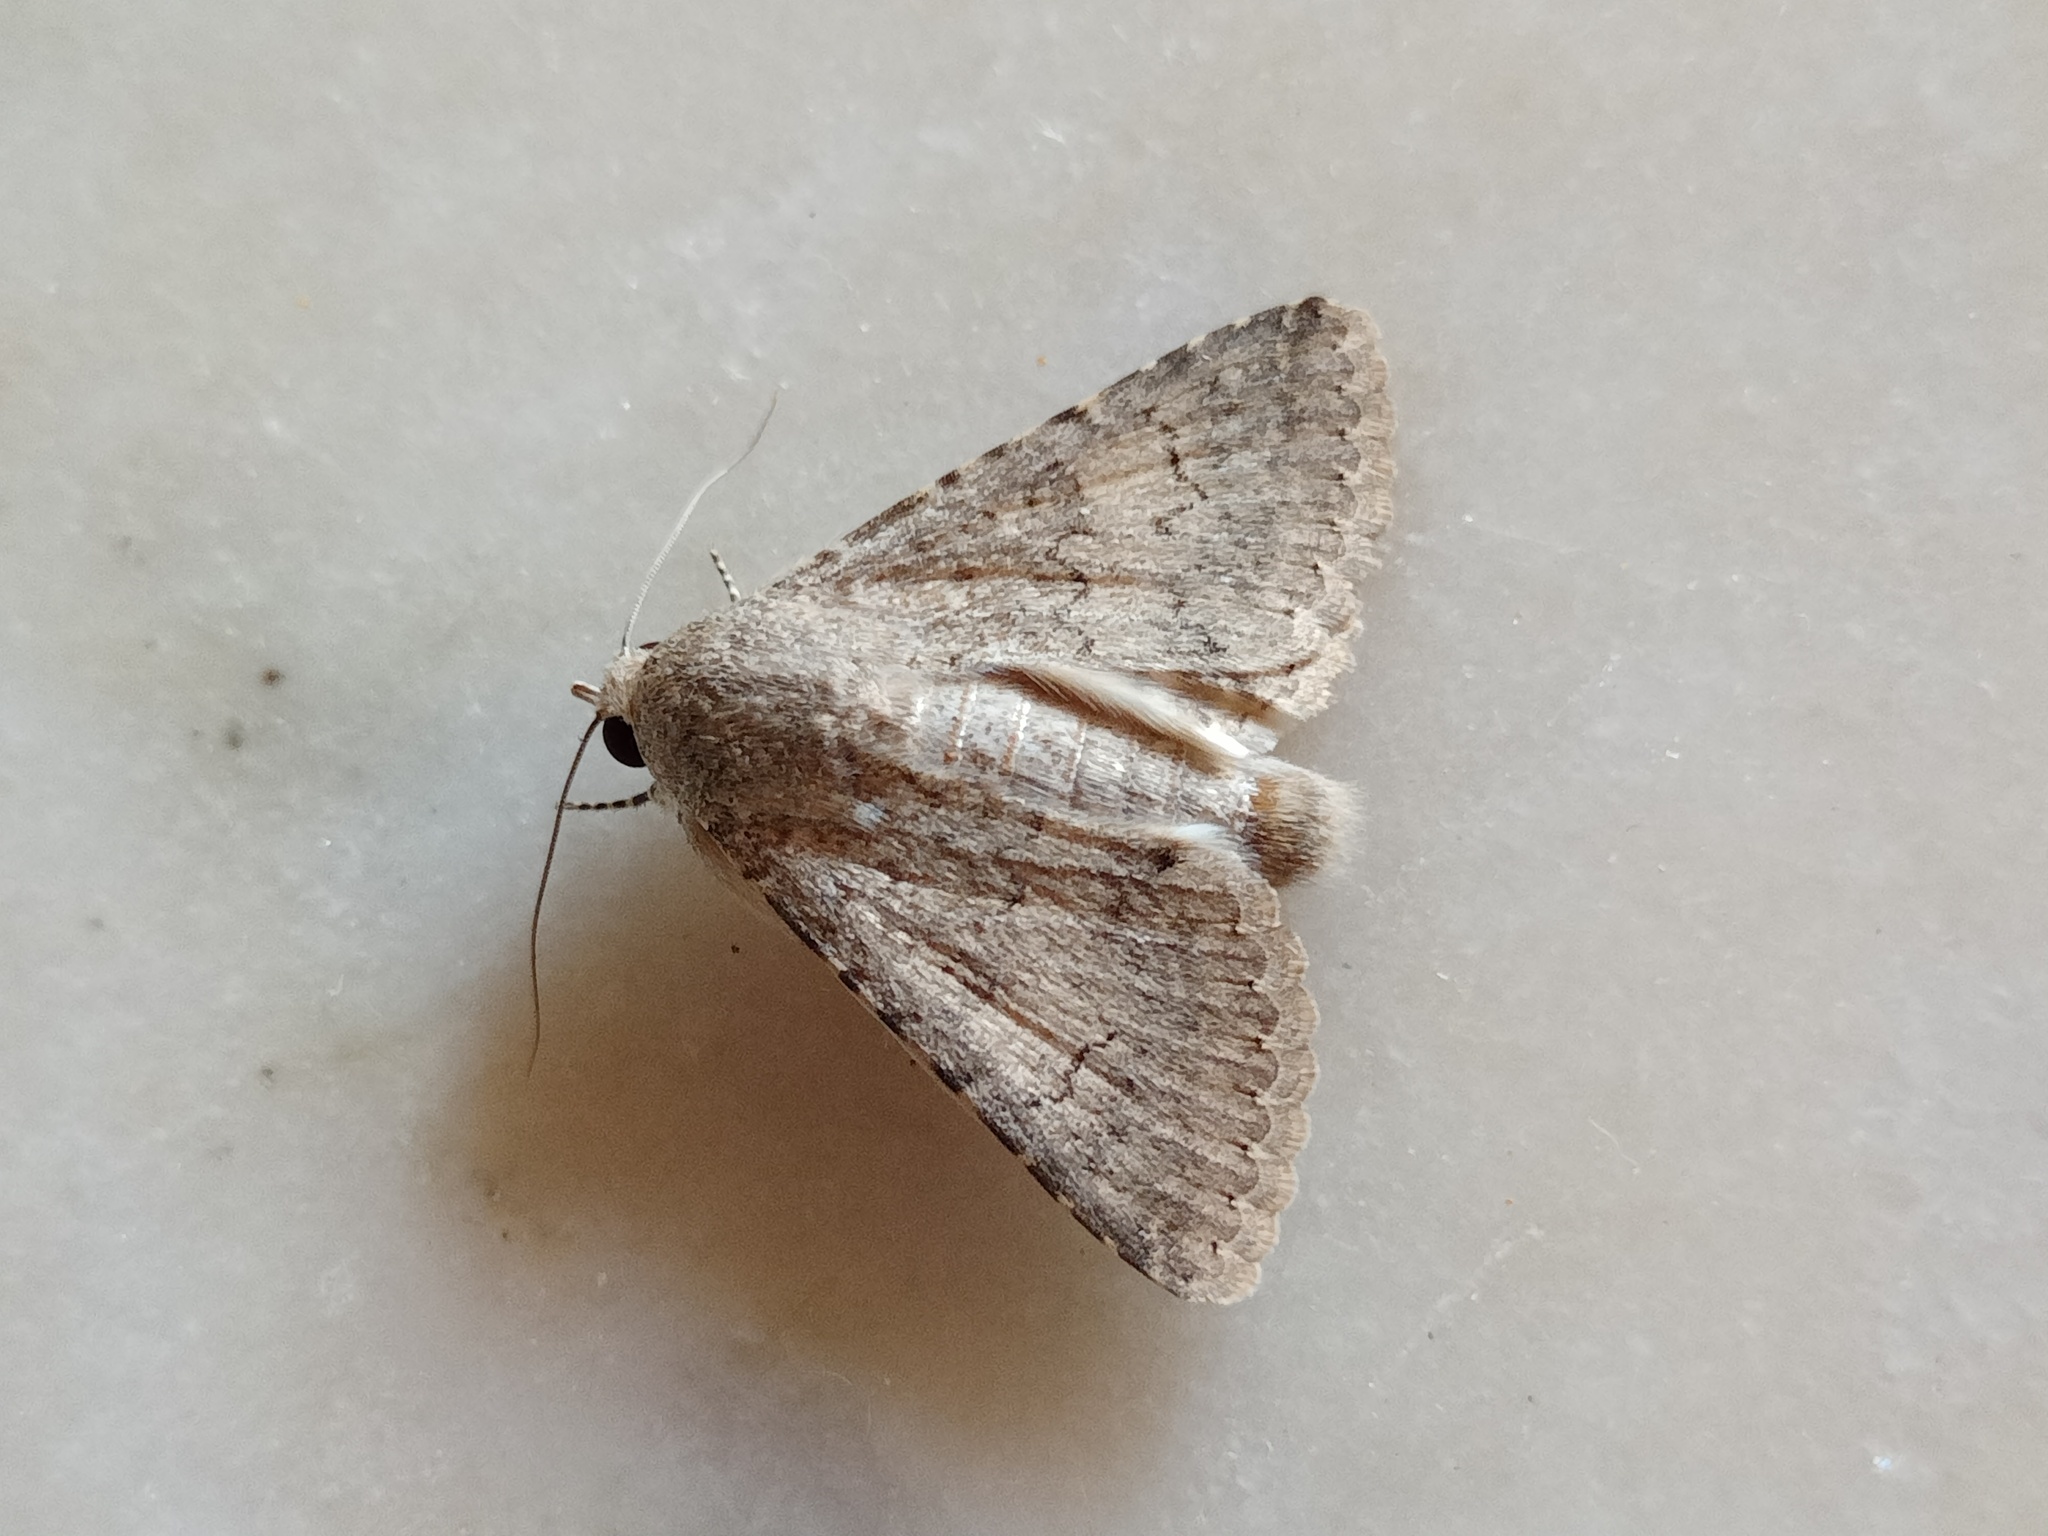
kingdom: Animalia
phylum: Arthropoda
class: Insecta
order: Lepidoptera
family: Erebidae
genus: Pandesma
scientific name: Pandesma robusta
